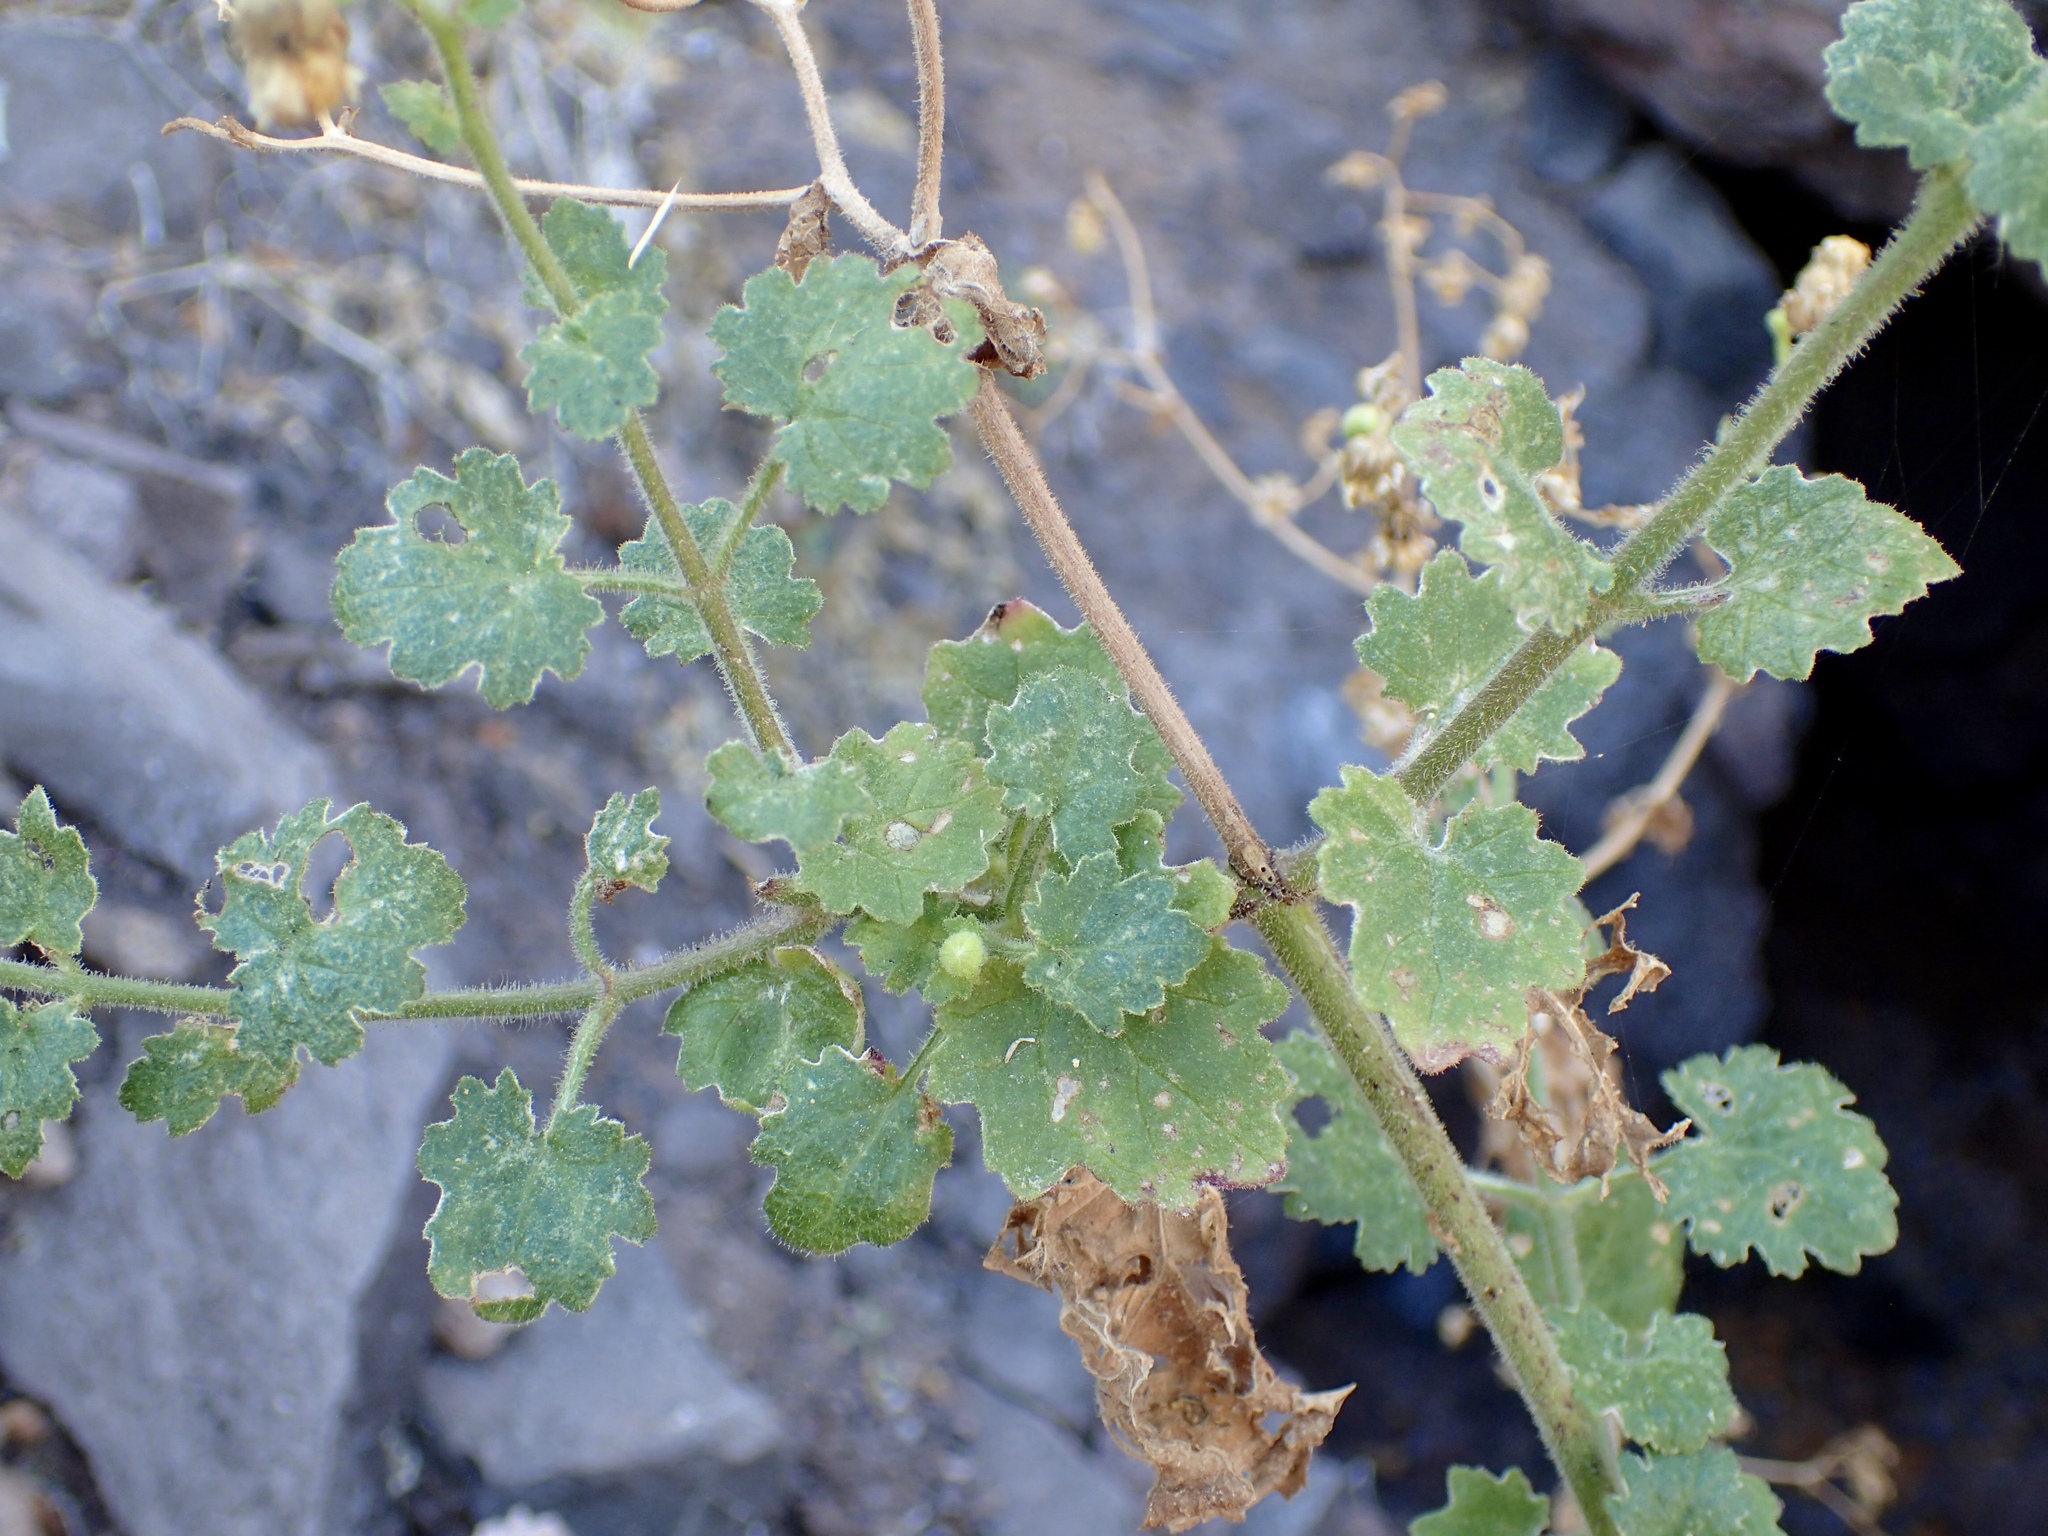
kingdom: Plantae
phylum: Tracheophyta
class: Magnoliopsida
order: Asterales
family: Asteraceae
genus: Perityle
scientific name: Perityle brandegeeana
